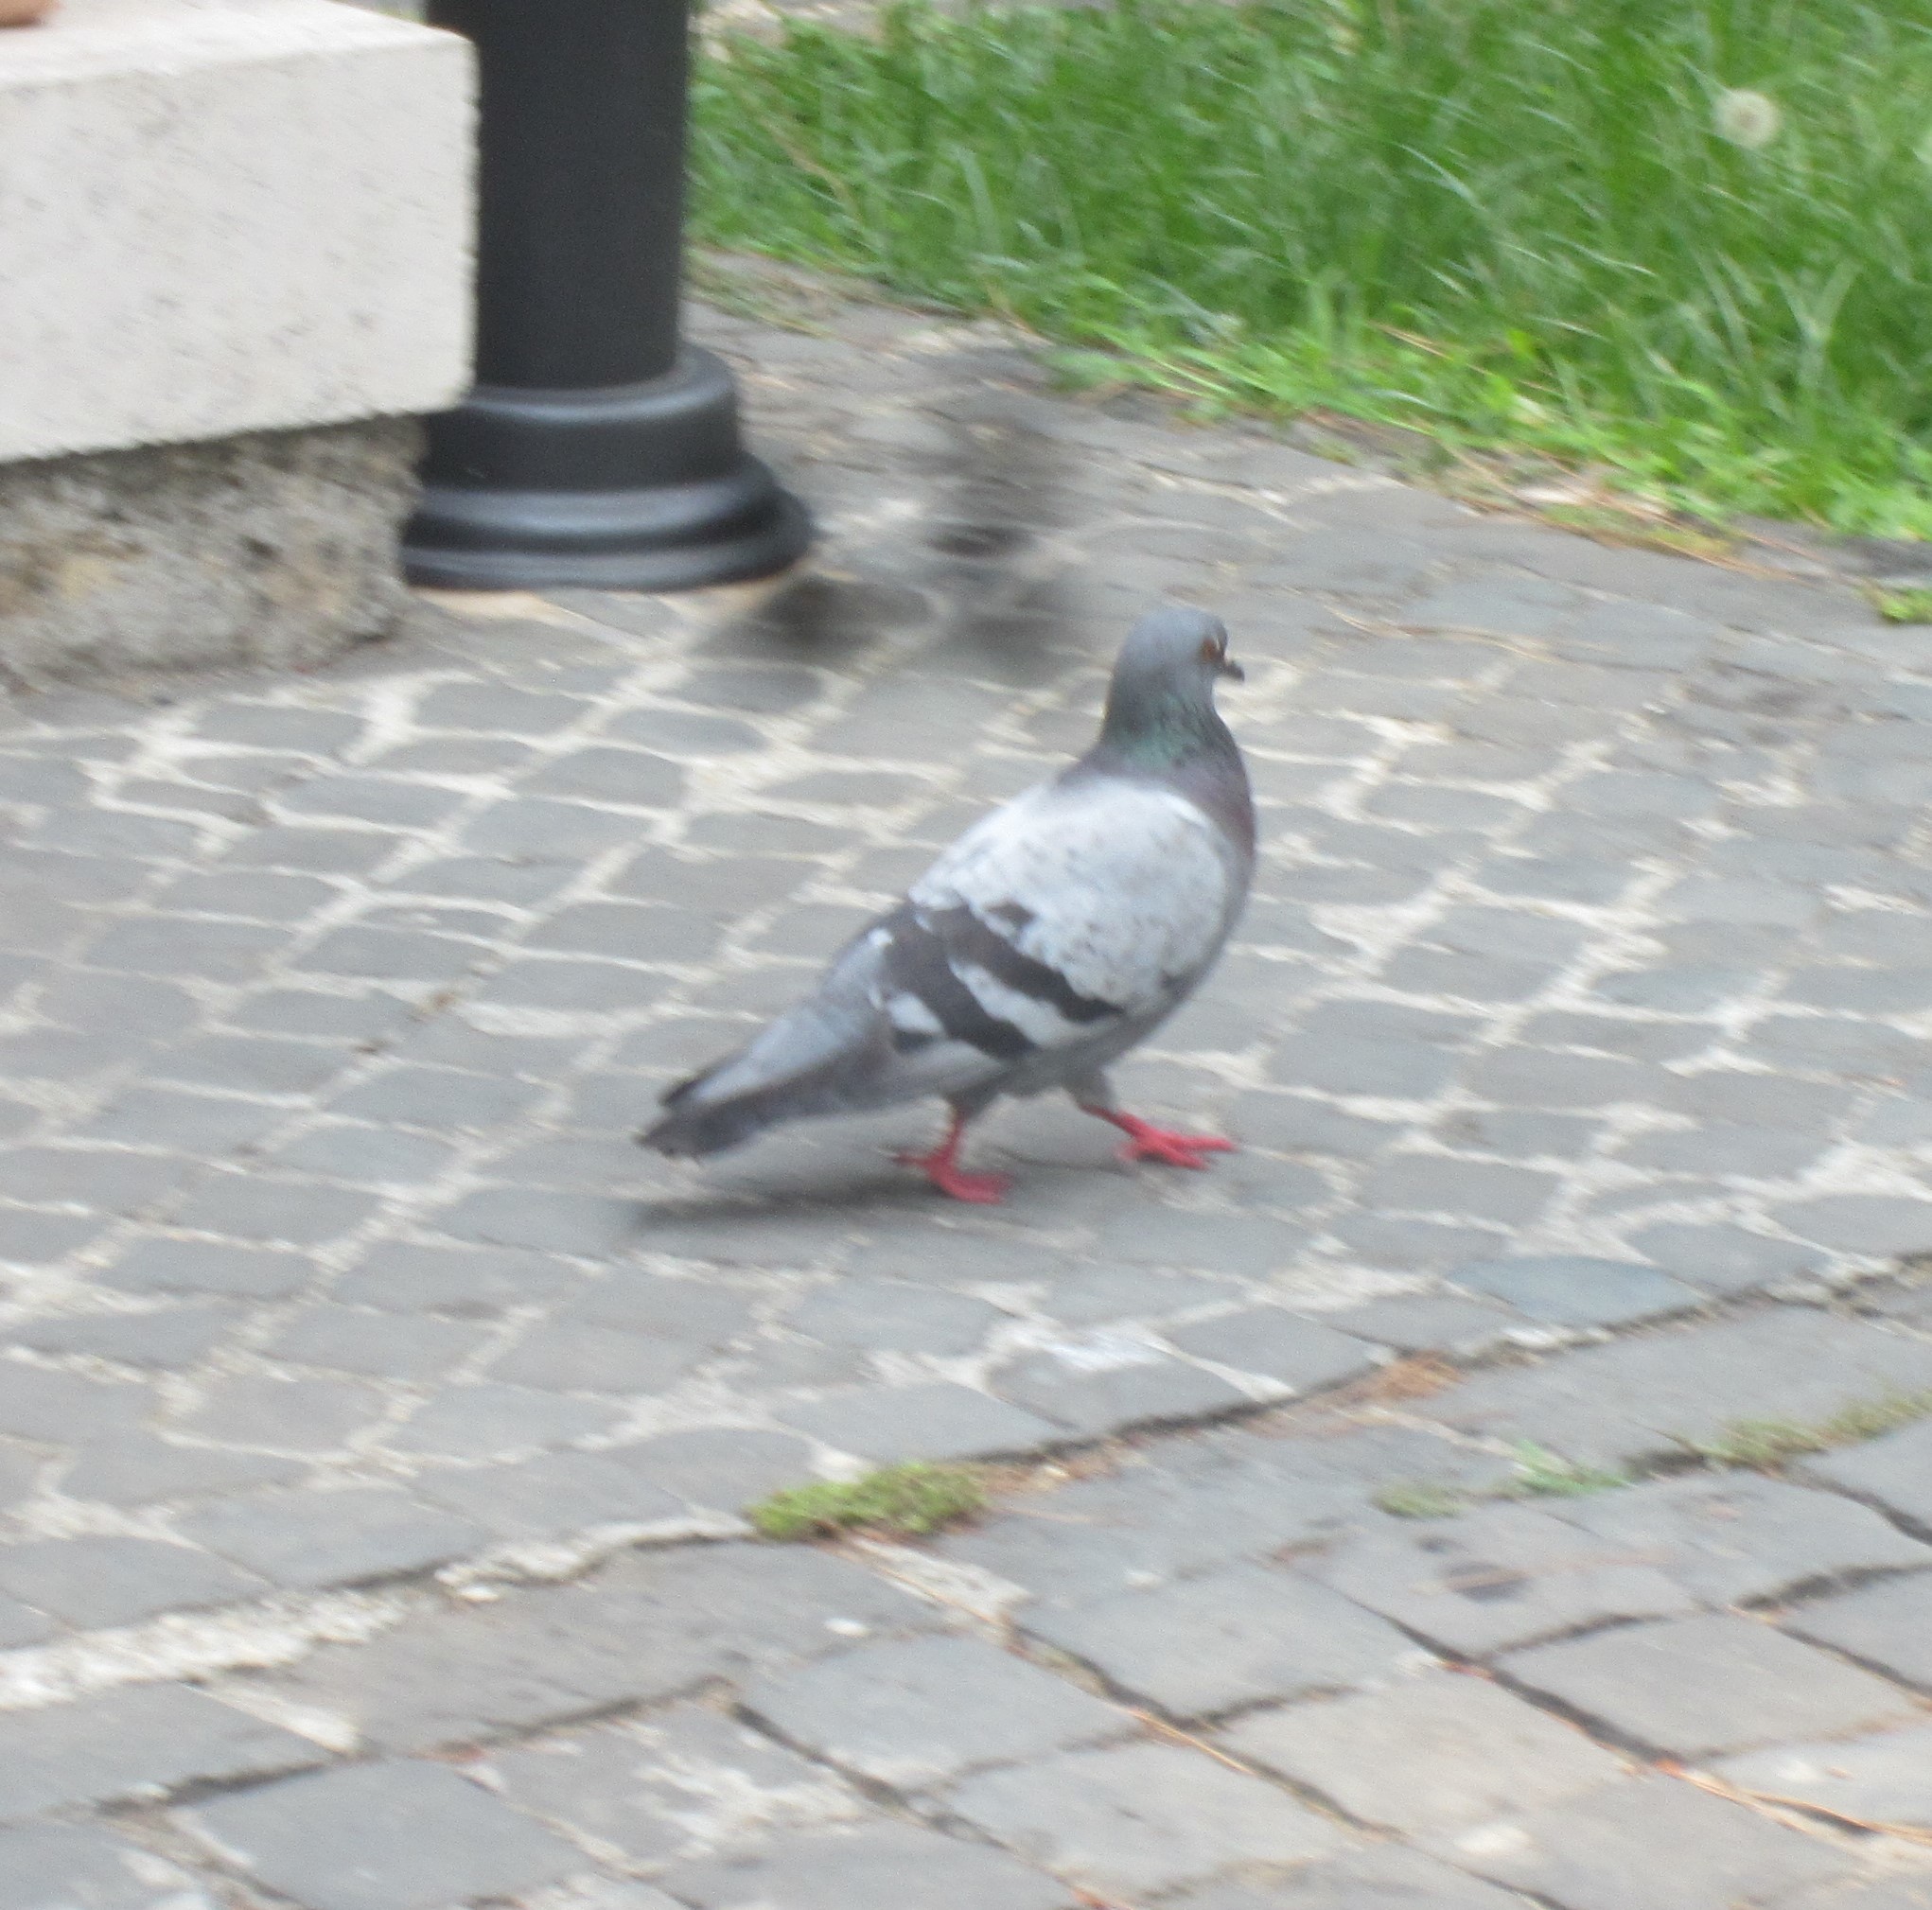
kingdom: Animalia
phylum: Chordata
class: Aves
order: Columbiformes
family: Columbidae
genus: Columba
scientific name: Columba livia
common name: Rock pigeon
